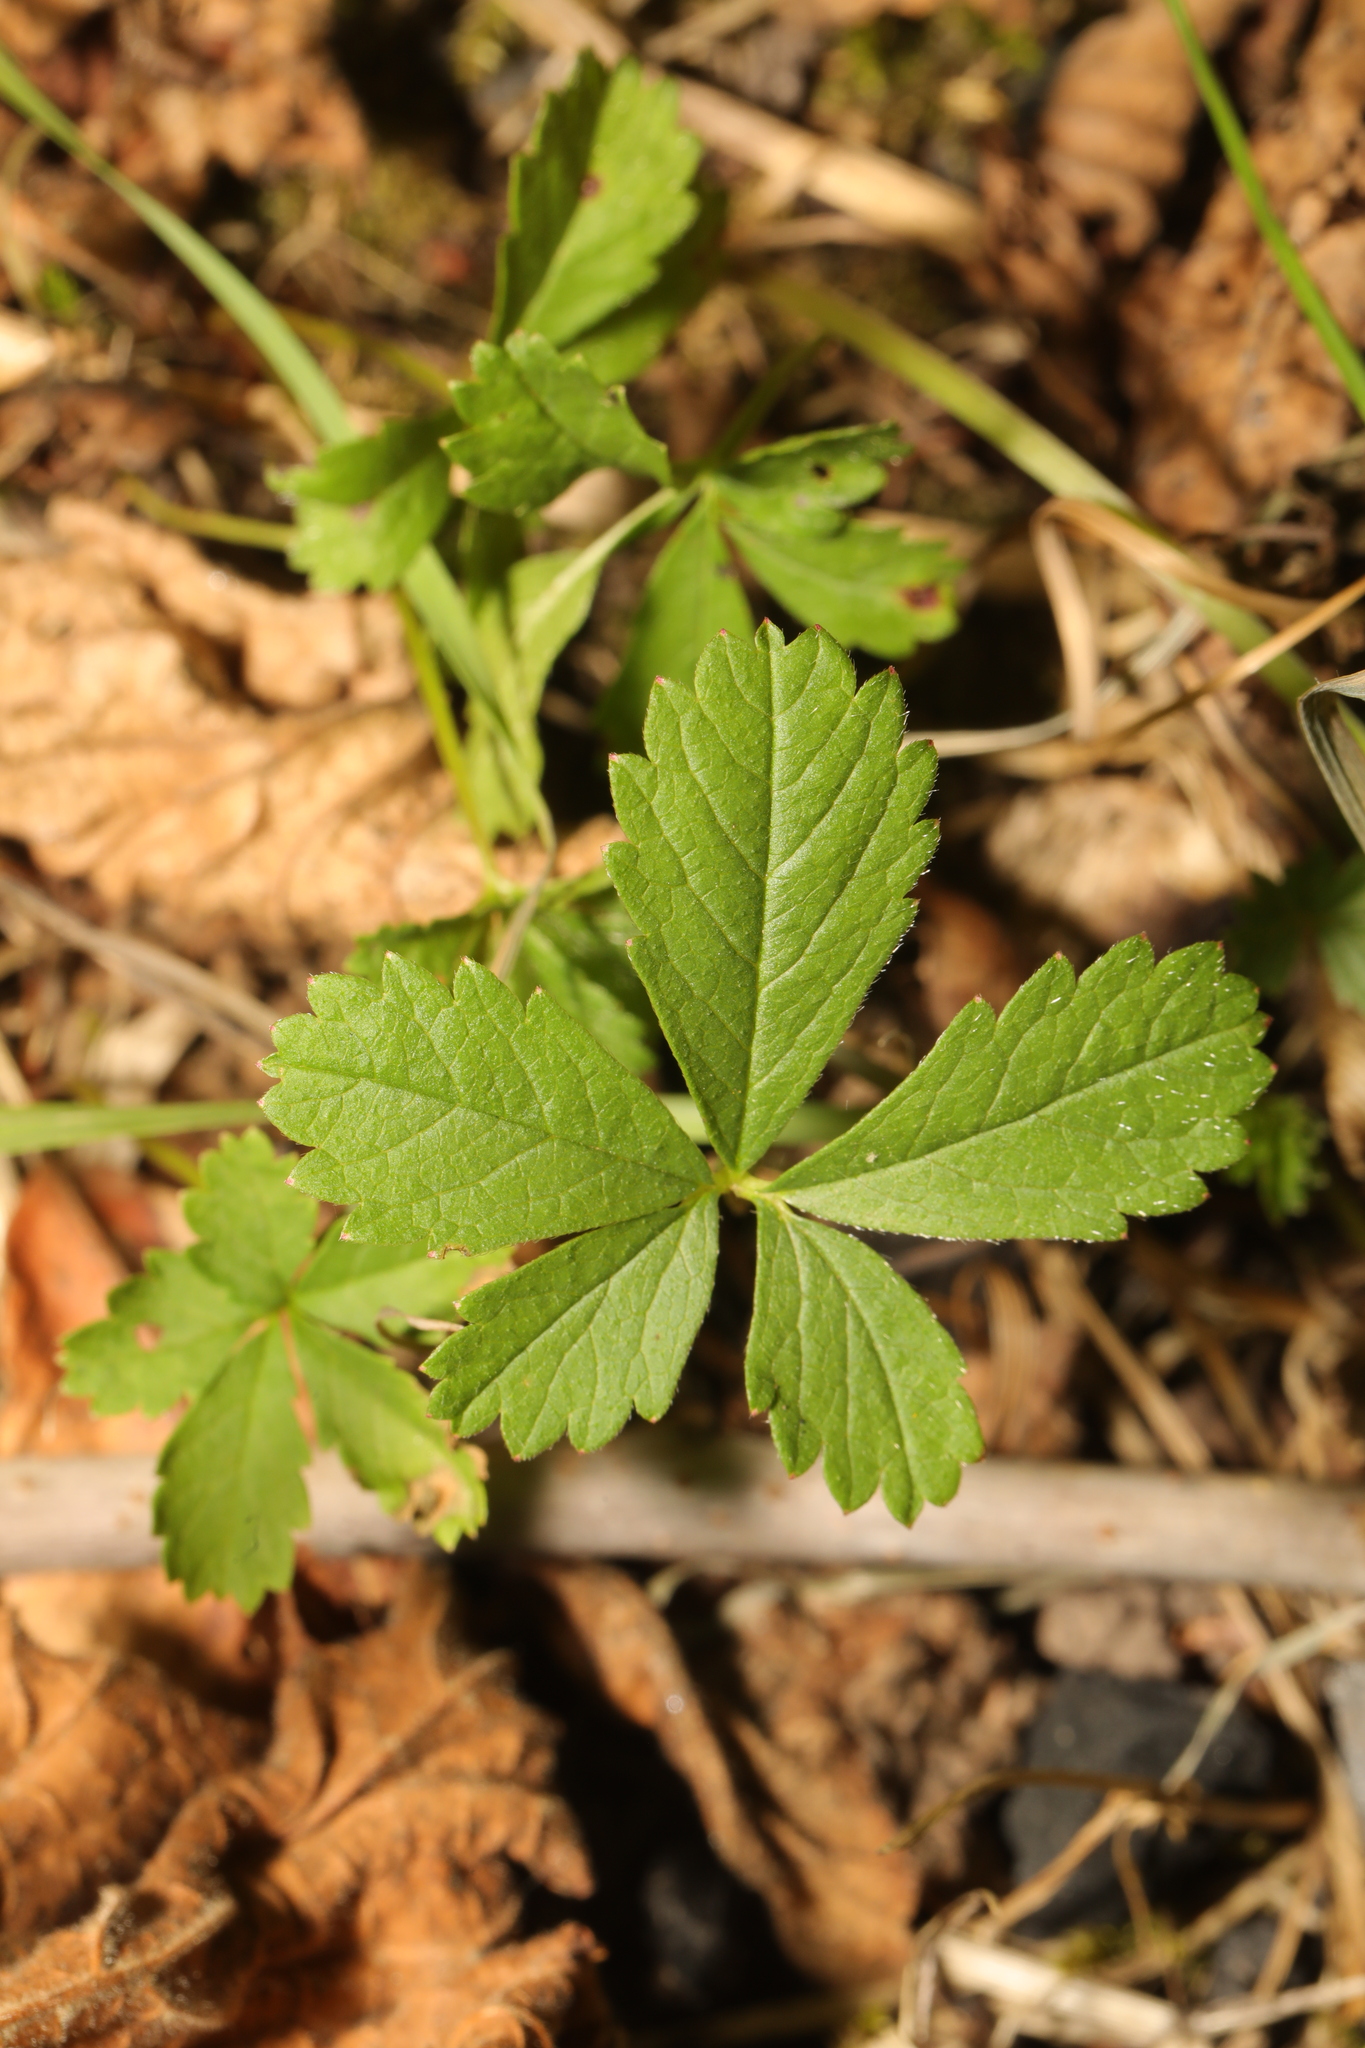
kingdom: Plantae
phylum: Tracheophyta
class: Magnoliopsida
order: Rosales
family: Rosaceae
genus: Potentilla
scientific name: Potentilla reptans
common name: Creeping cinquefoil
